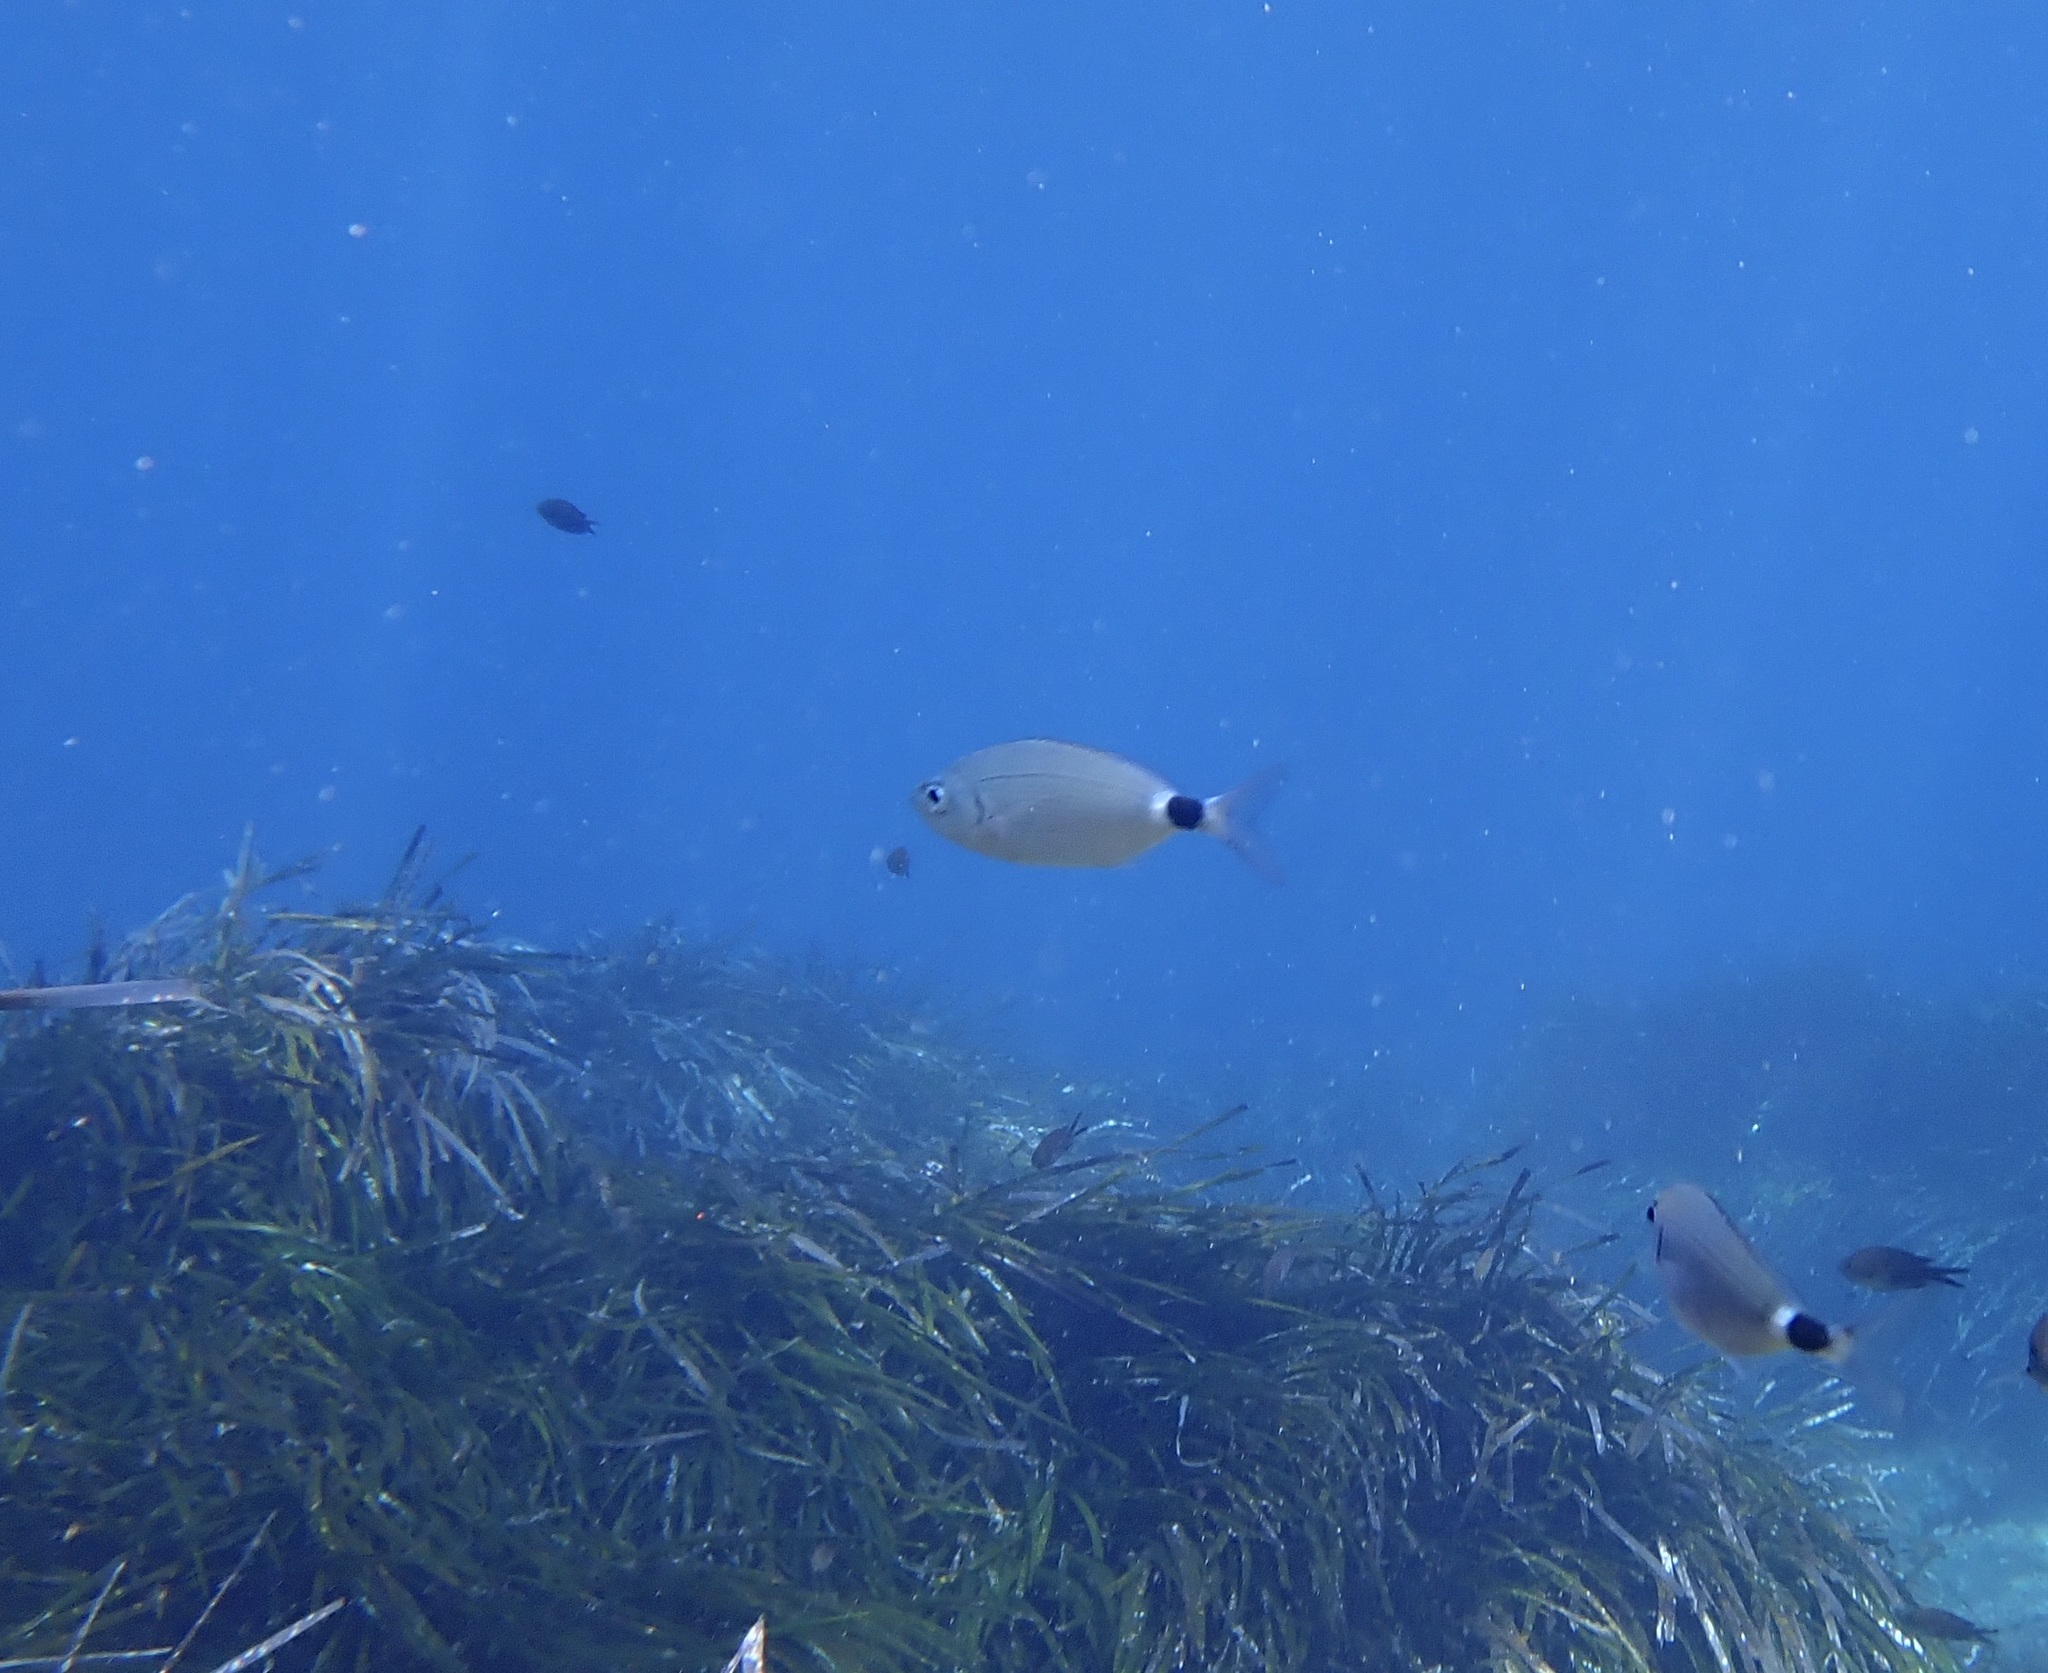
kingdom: Animalia
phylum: Chordata
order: Perciformes
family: Sparidae
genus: Oblada
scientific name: Oblada melanura
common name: Saddled seabream
